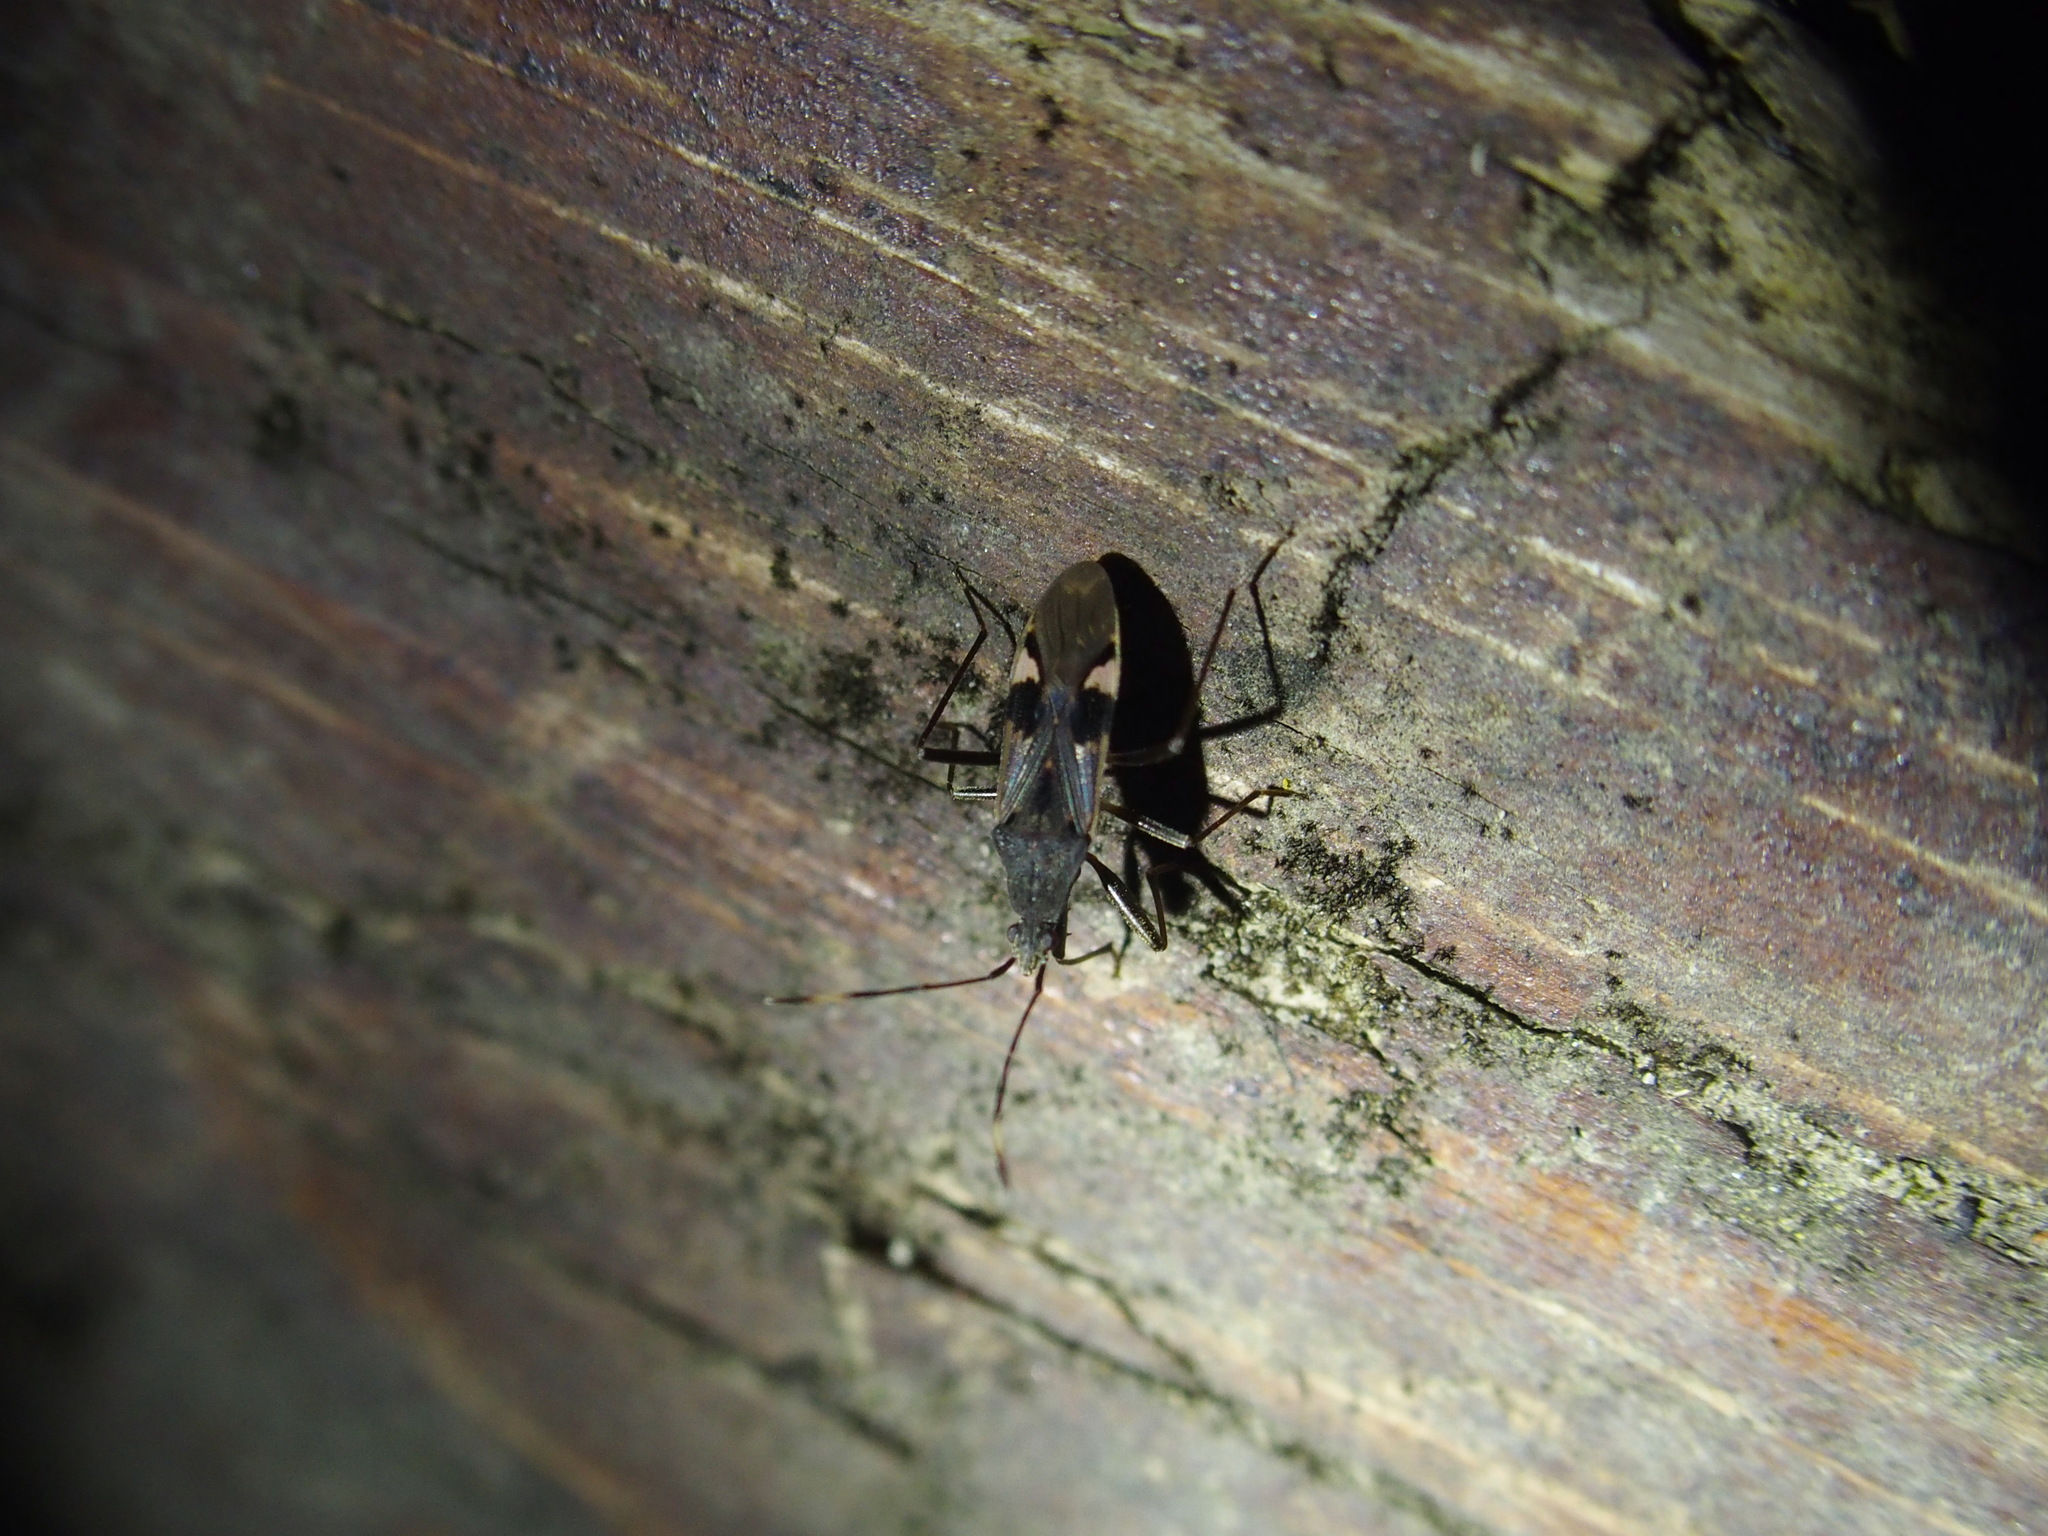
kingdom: Animalia
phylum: Arthropoda
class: Insecta
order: Hemiptera
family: Rhyparochromidae
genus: Metochus
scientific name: Metochus abbreviatus
